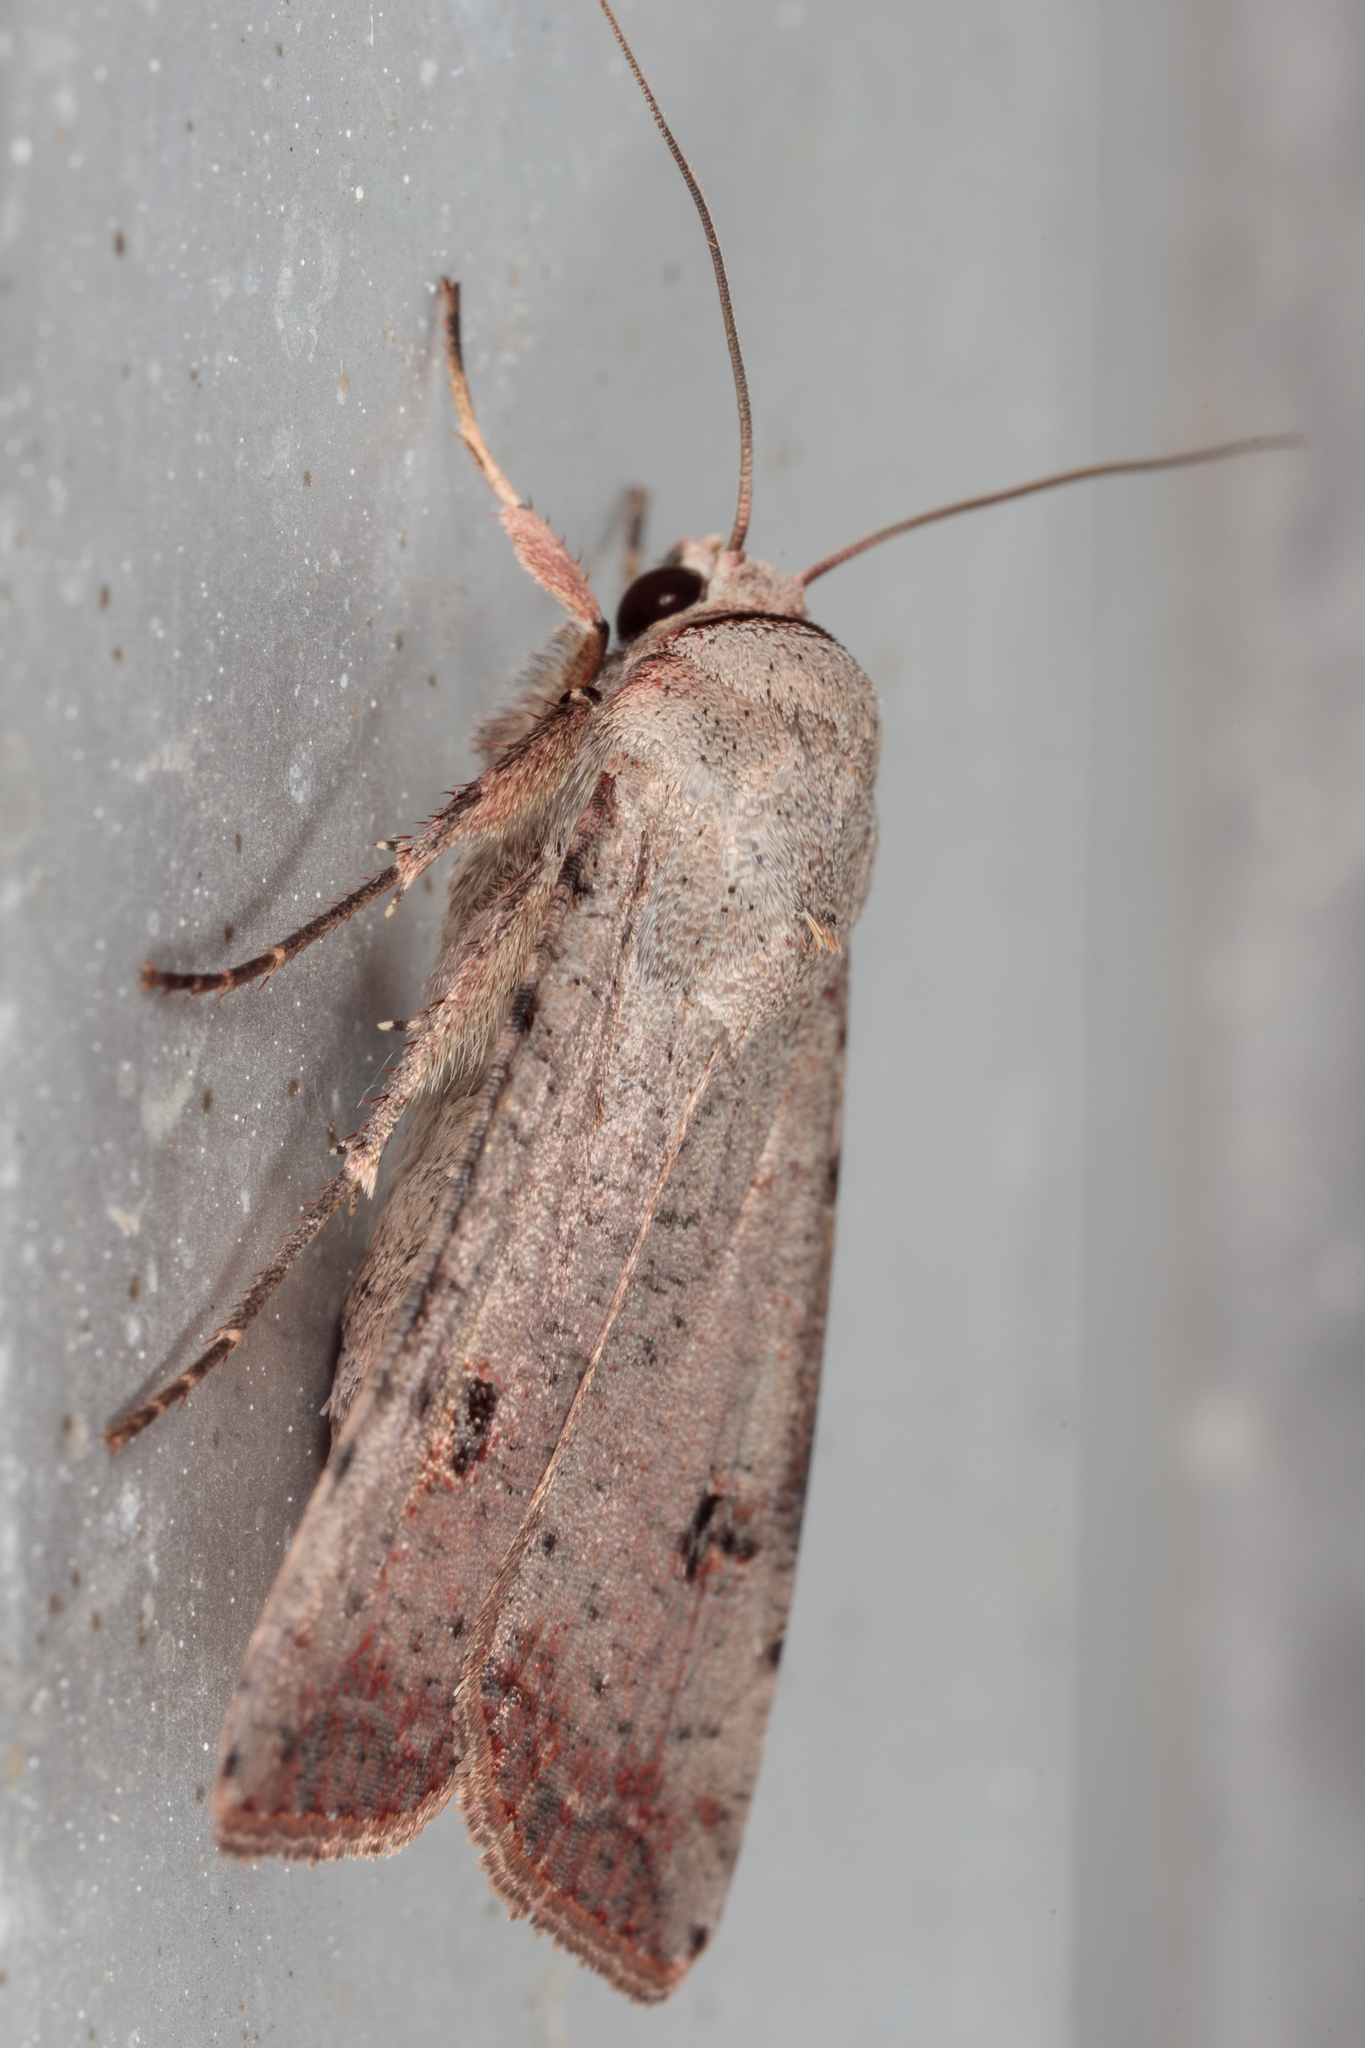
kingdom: Animalia
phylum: Arthropoda
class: Insecta
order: Lepidoptera
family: Noctuidae
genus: Anicla
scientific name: Anicla infecta
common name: Green cutworm
